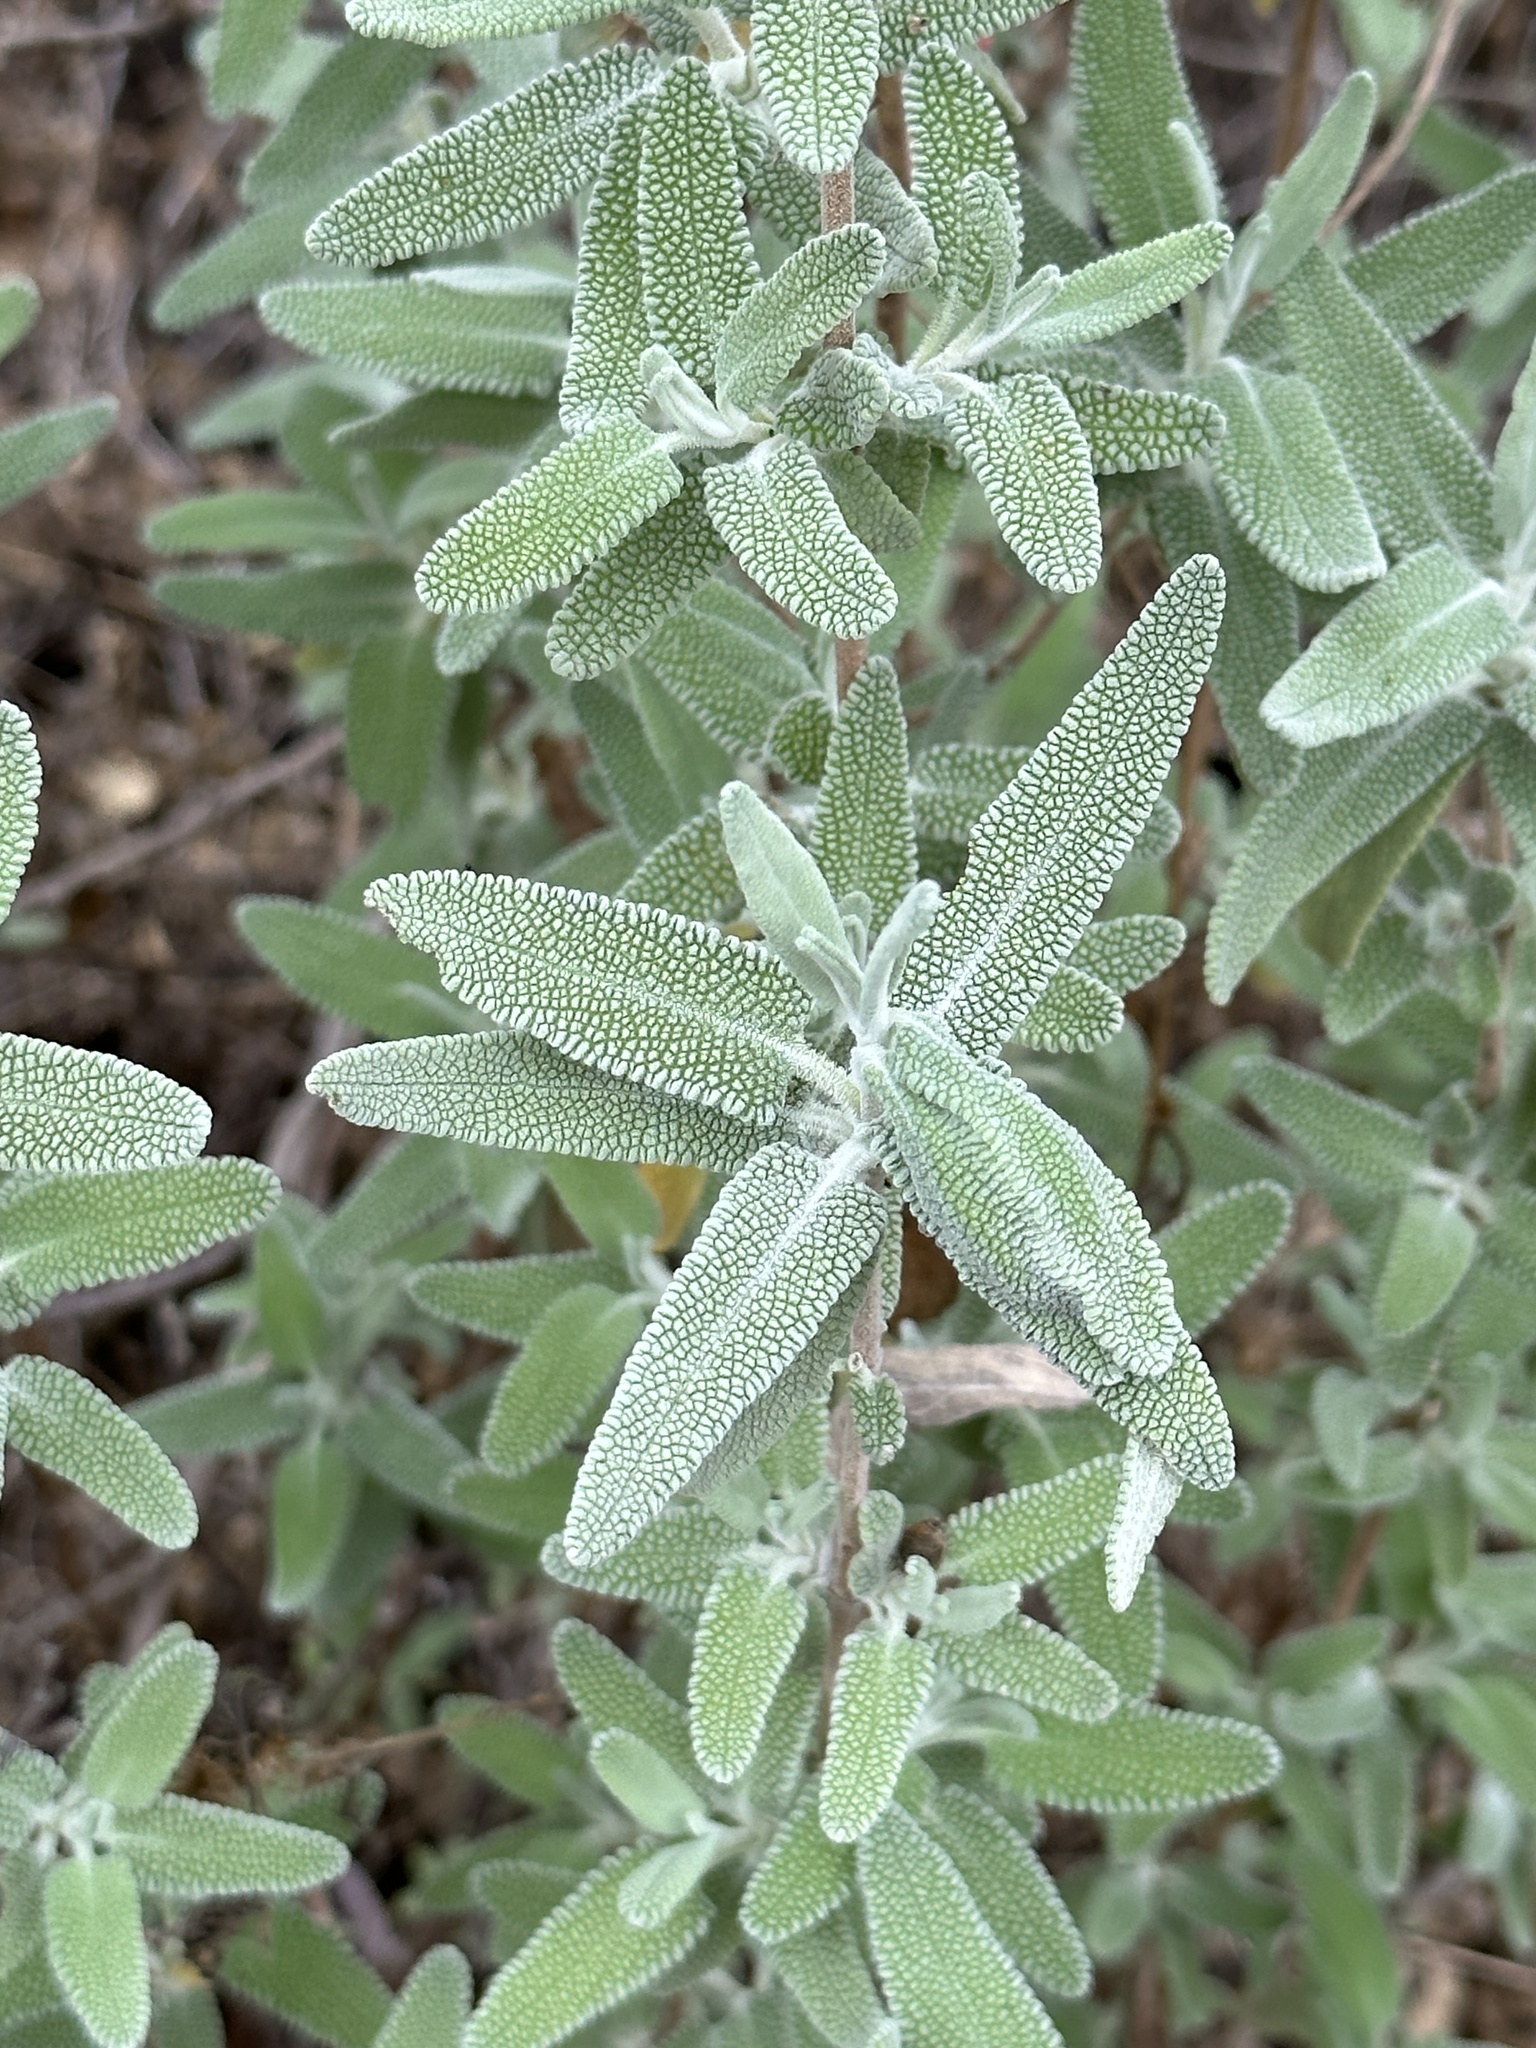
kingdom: Plantae
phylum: Tracheophyta
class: Magnoliopsida
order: Lamiales
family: Lamiaceae
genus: Salvia
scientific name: Salvia leucophylla
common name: Purple sage
